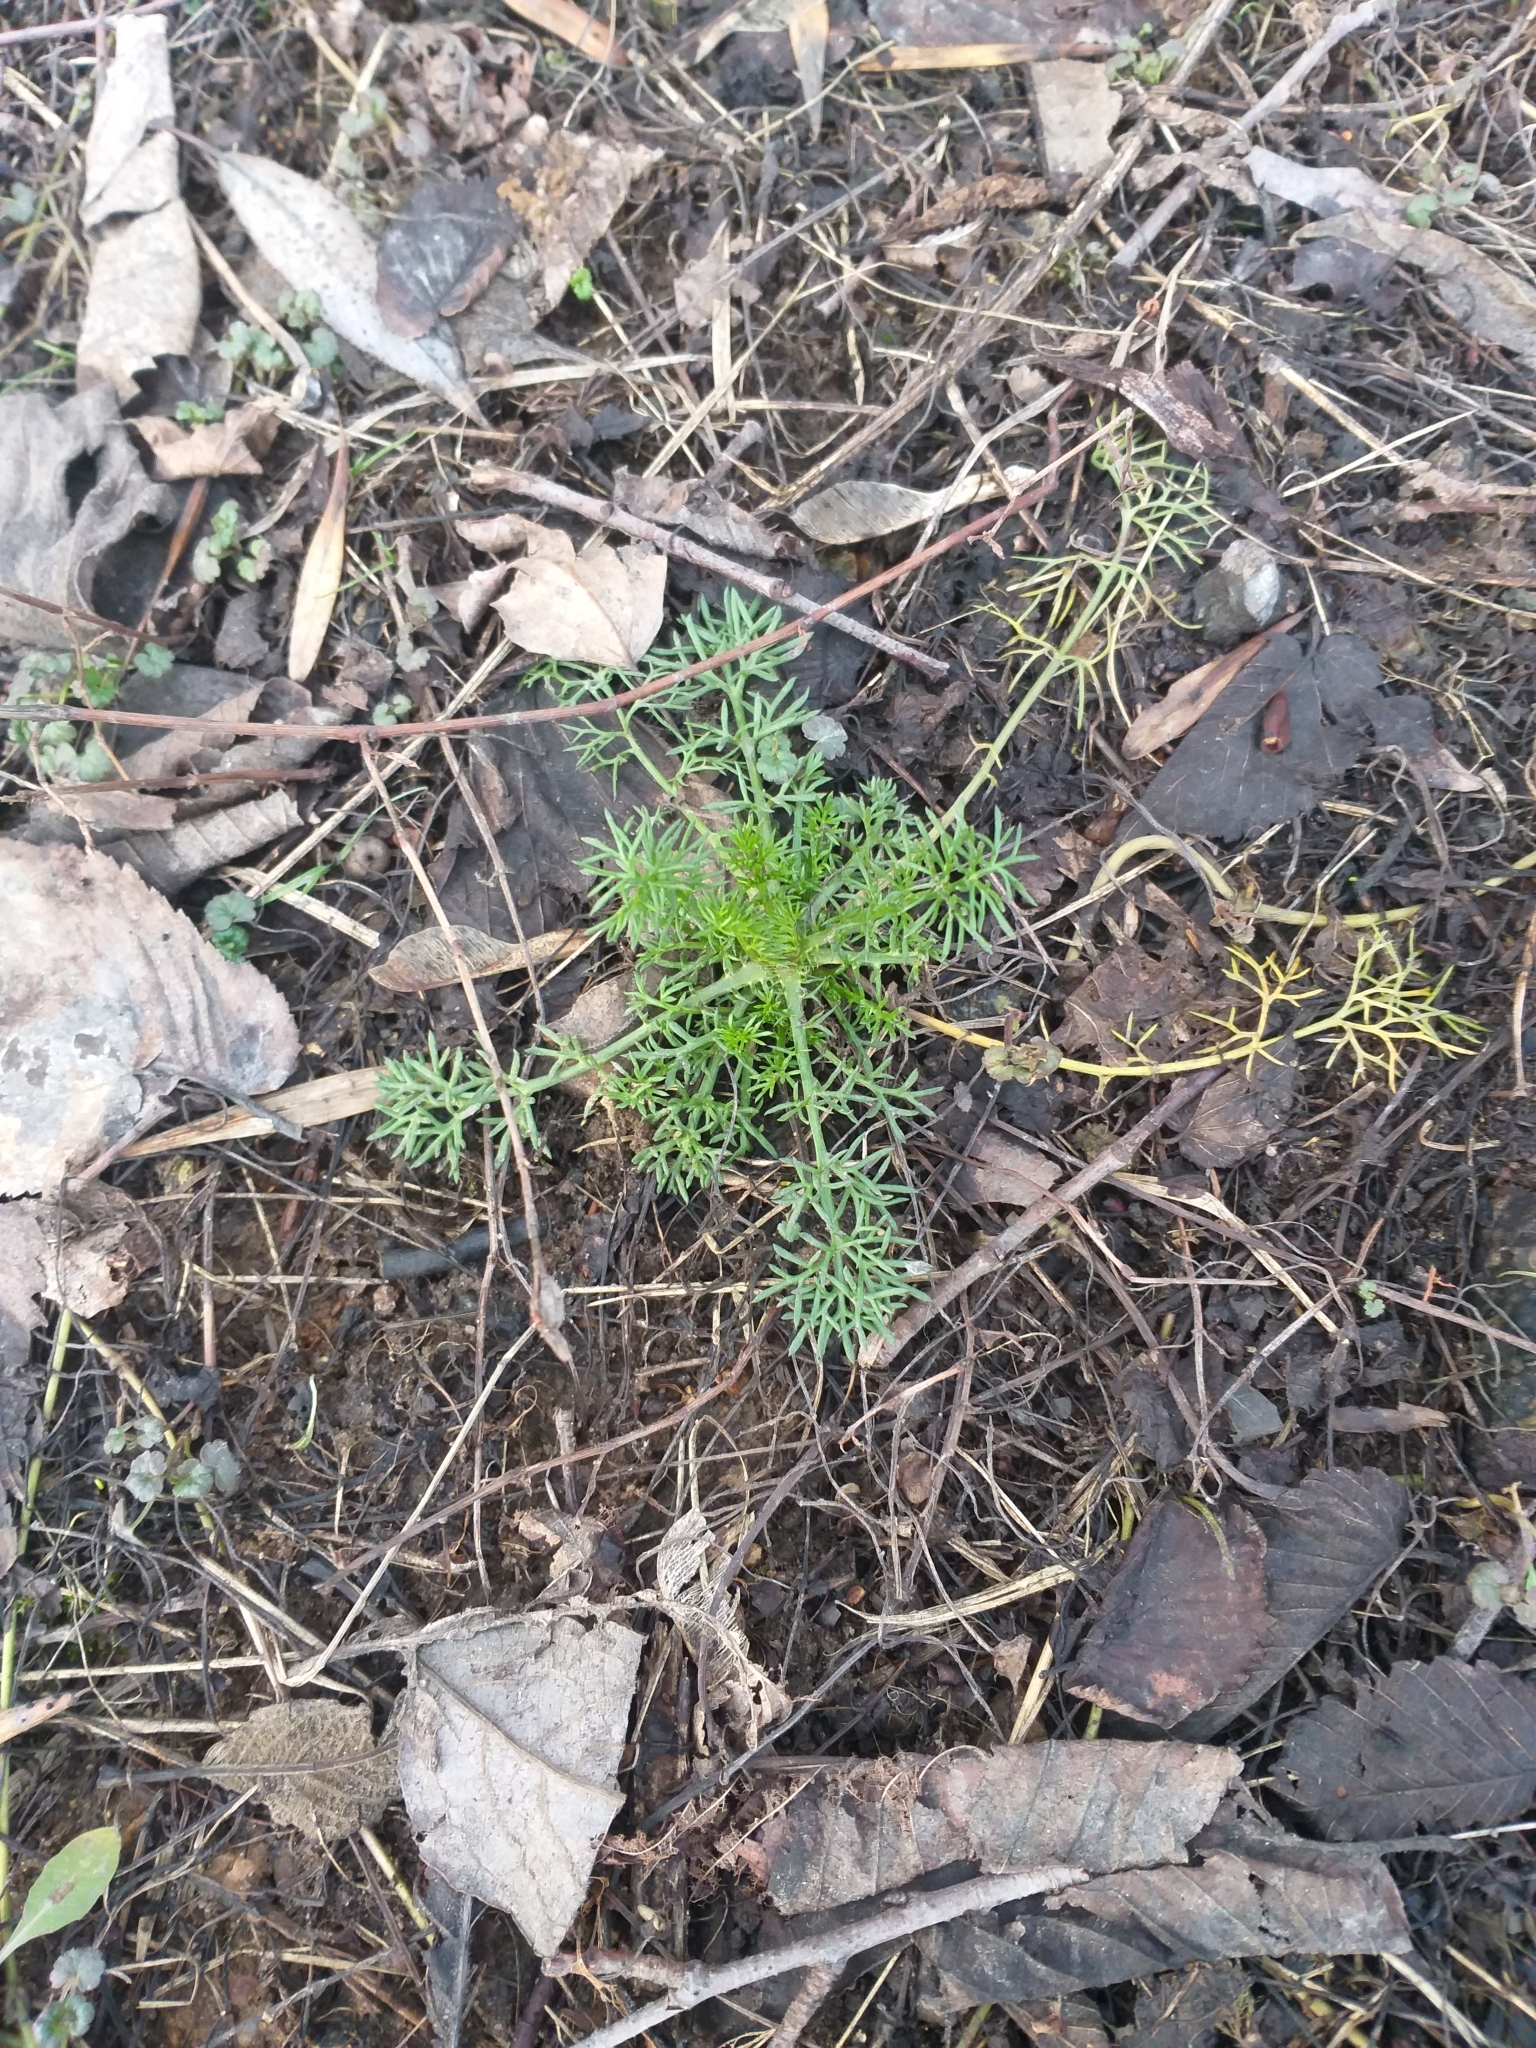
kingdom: Plantae
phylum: Tracheophyta
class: Magnoliopsida
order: Asterales
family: Asteraceae
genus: Tripleurospermum
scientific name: Tripleurospermum inodorum
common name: Scentless mayweed
